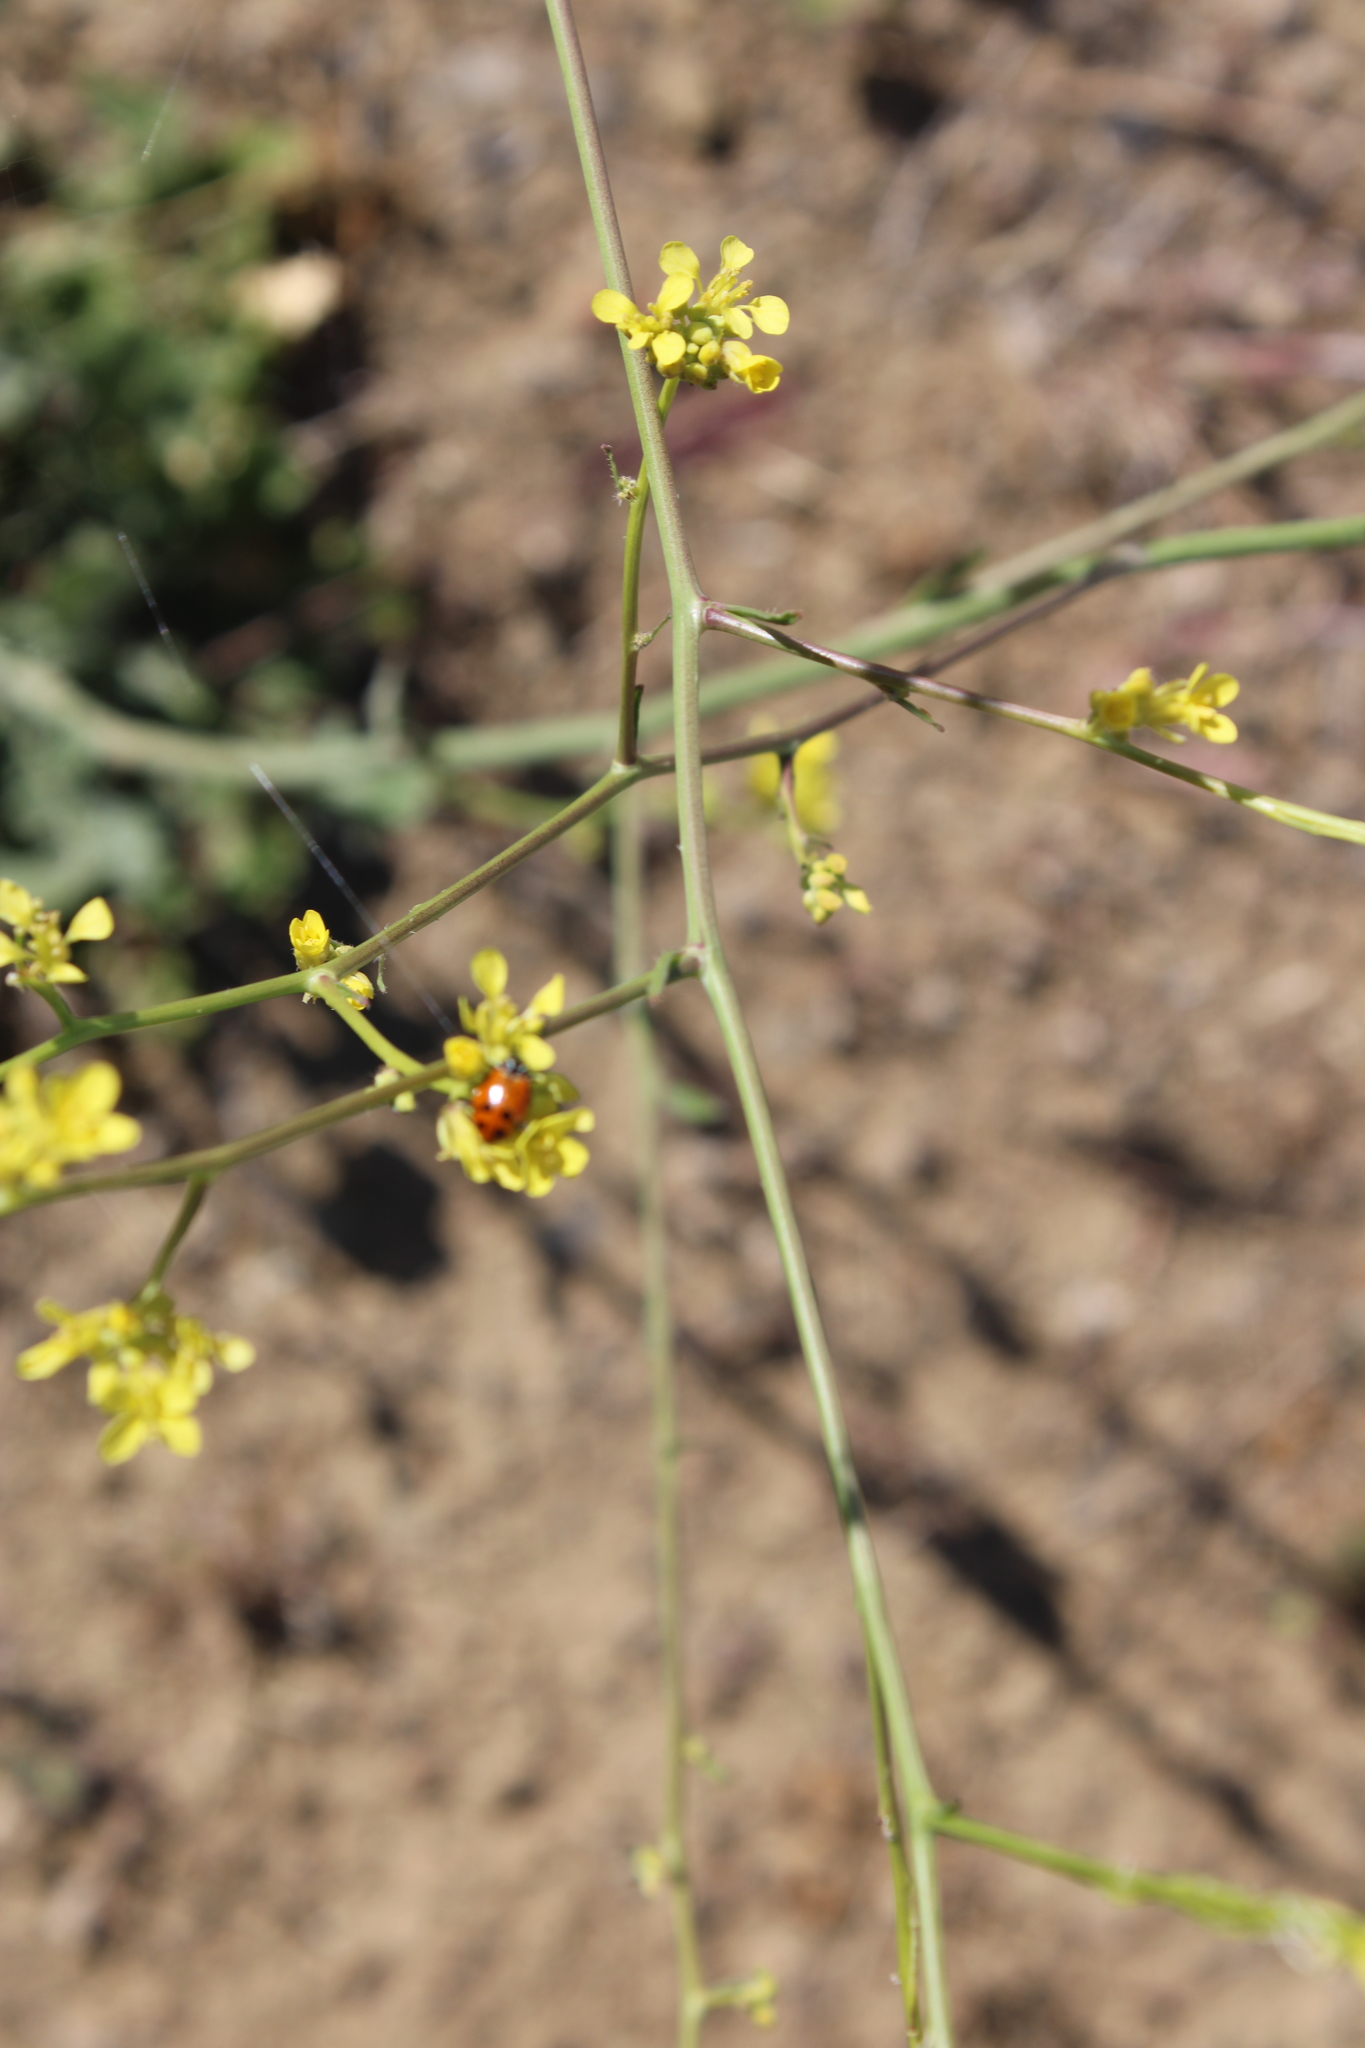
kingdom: Animalia
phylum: Arthropoda
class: Insecta
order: Coleoptera
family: Coccinellidae
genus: Hippodamia
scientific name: Hippodamia convergens
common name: Convergent lady beetle
